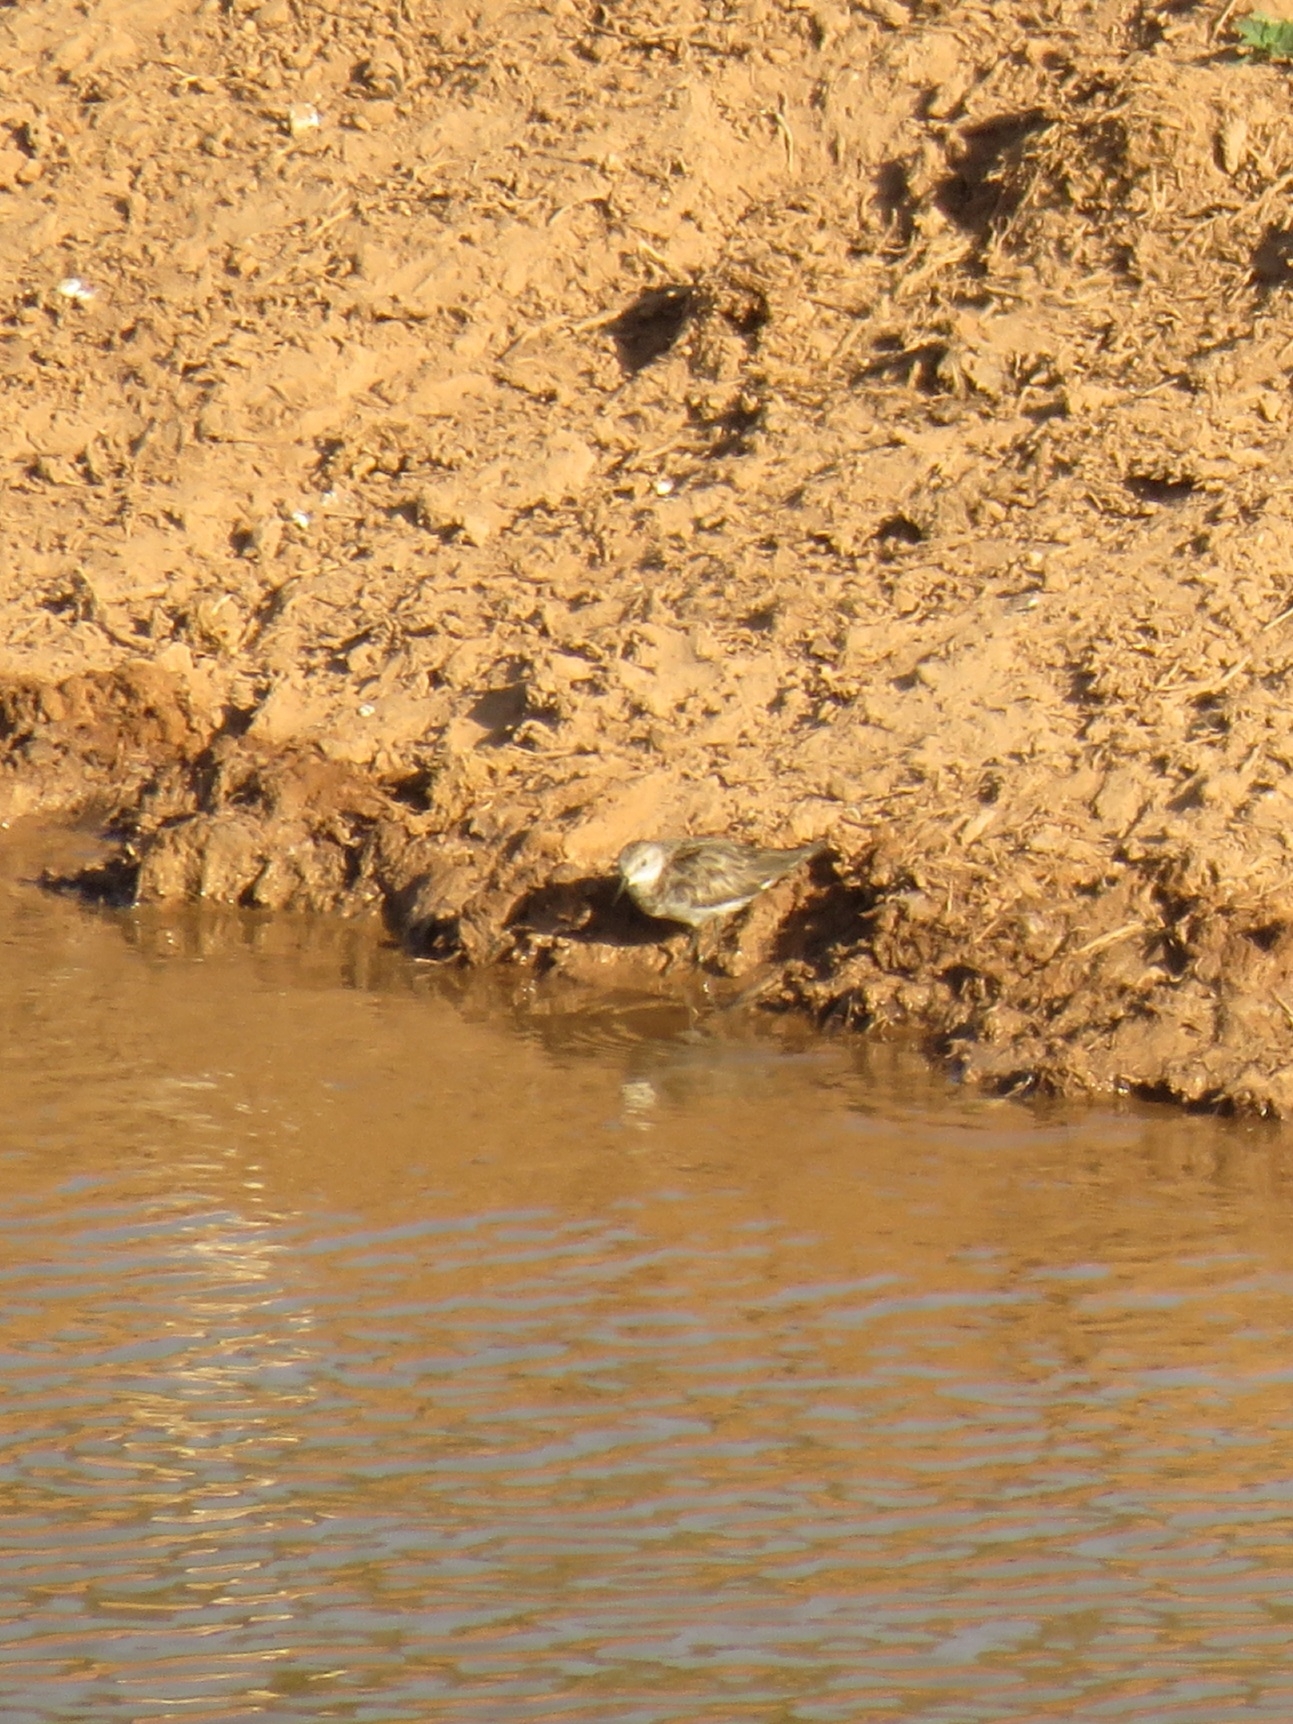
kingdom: Animalia
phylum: Chordata
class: Aves
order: Charadriiformes
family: Scolopacidae
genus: Calidris
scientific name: Calidris minuta
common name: Little stint
